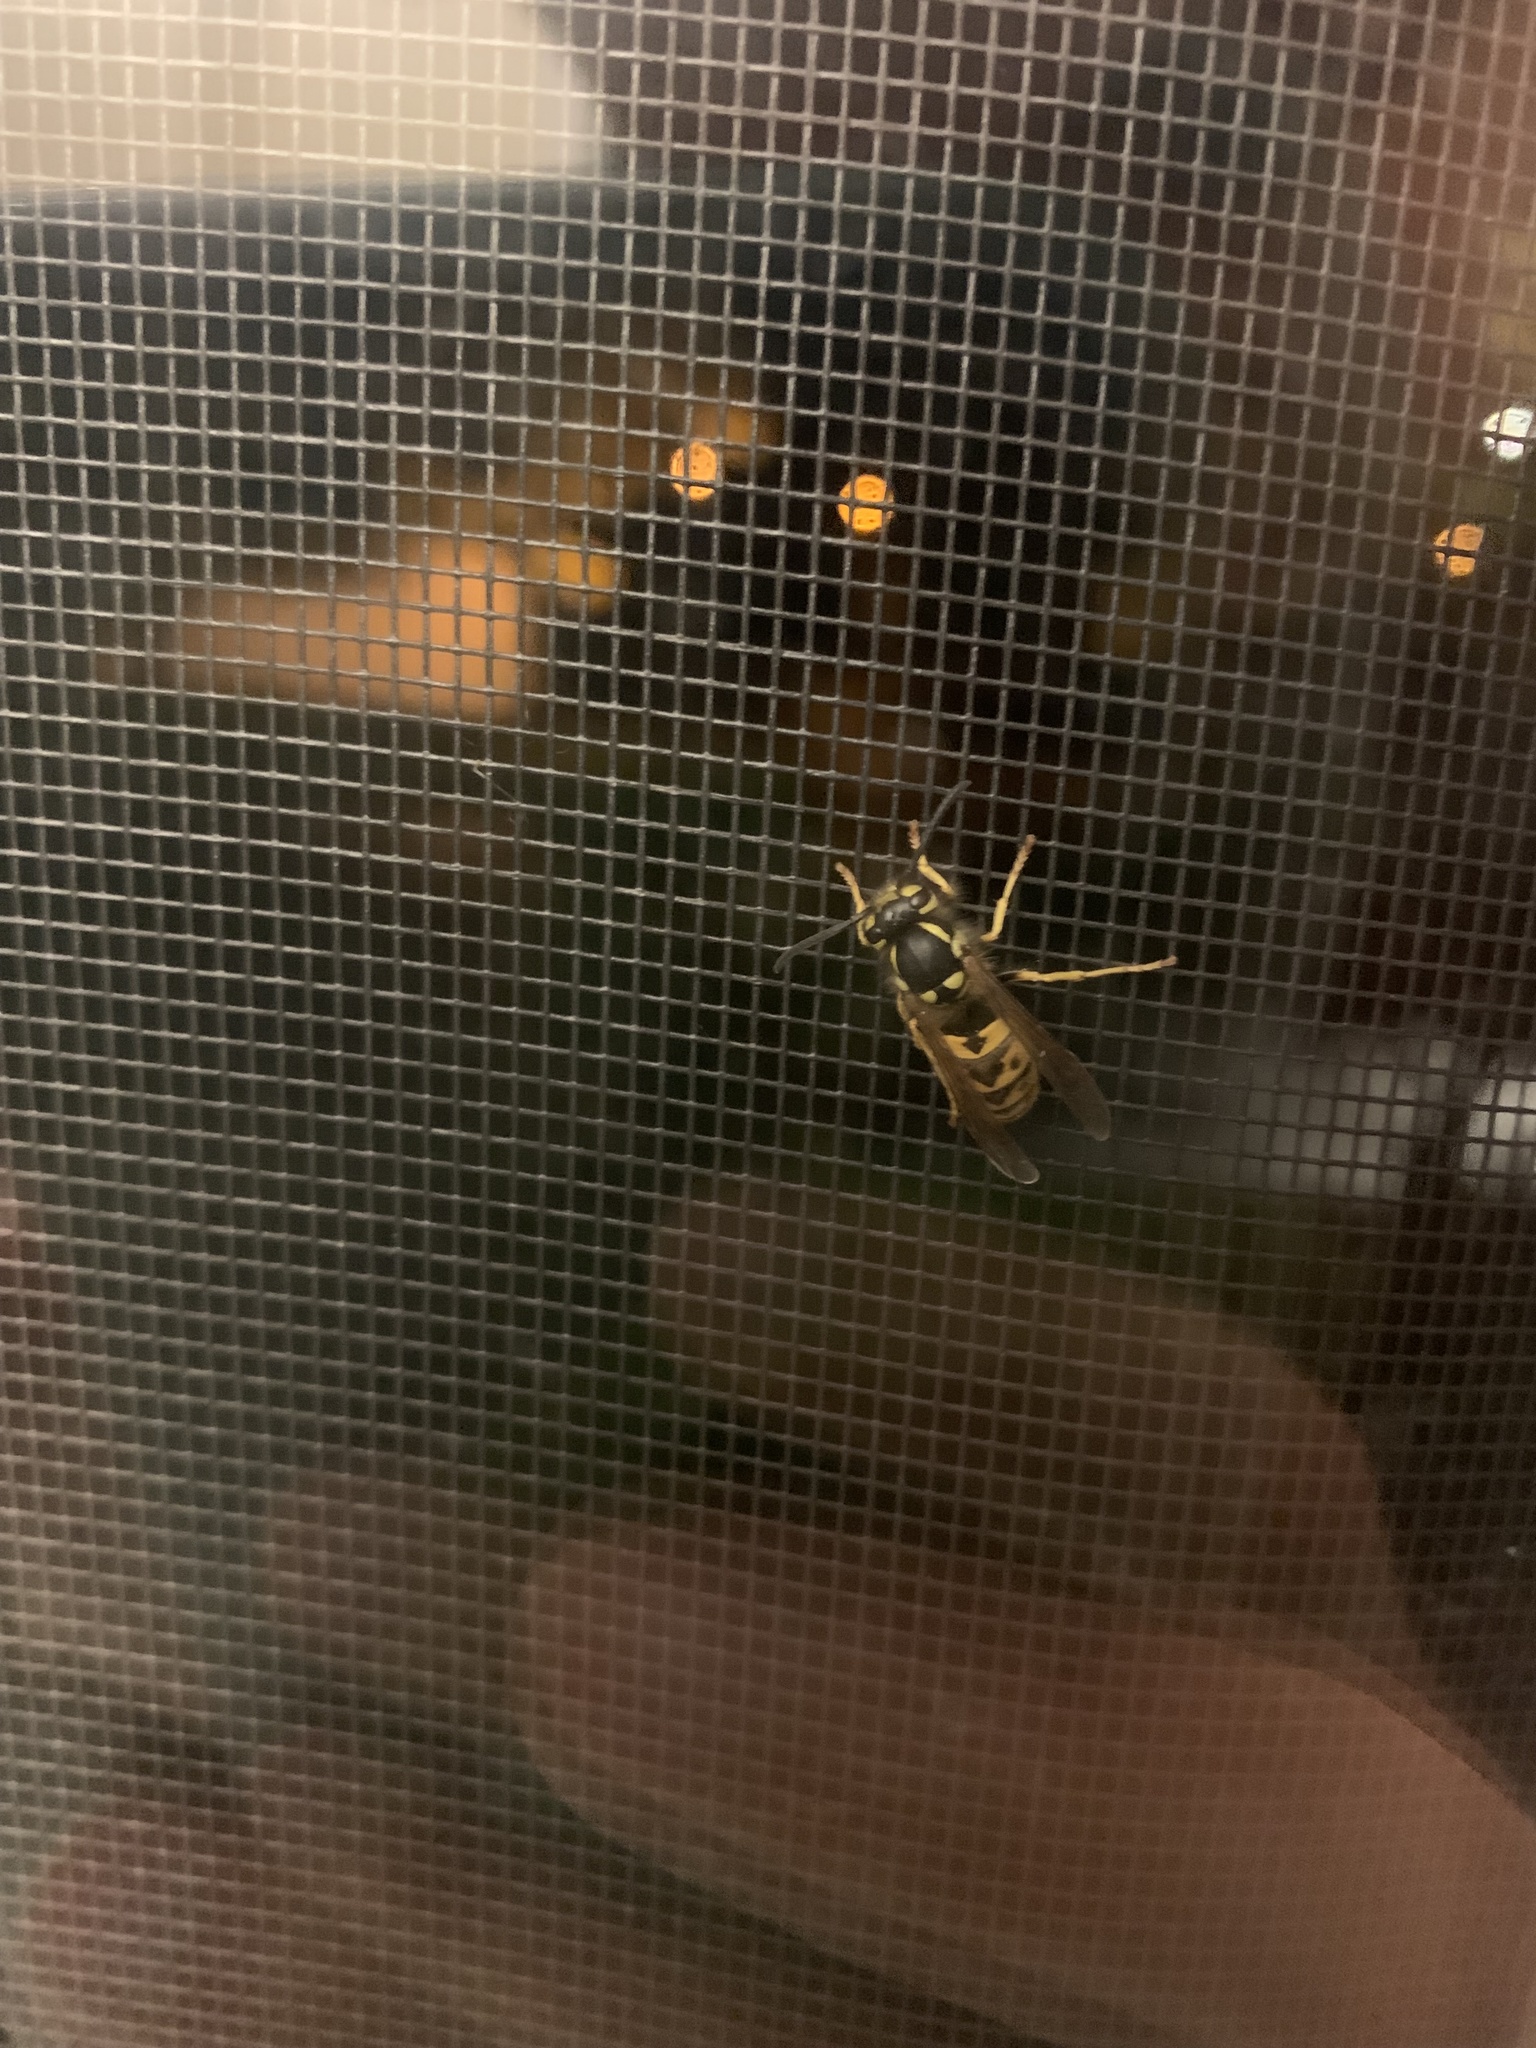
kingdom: Animalia
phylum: Arthropoda
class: Insecta
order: Hymenoptera
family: Vespidae
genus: Vespula
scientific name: Vespula germanica
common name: German wasp
